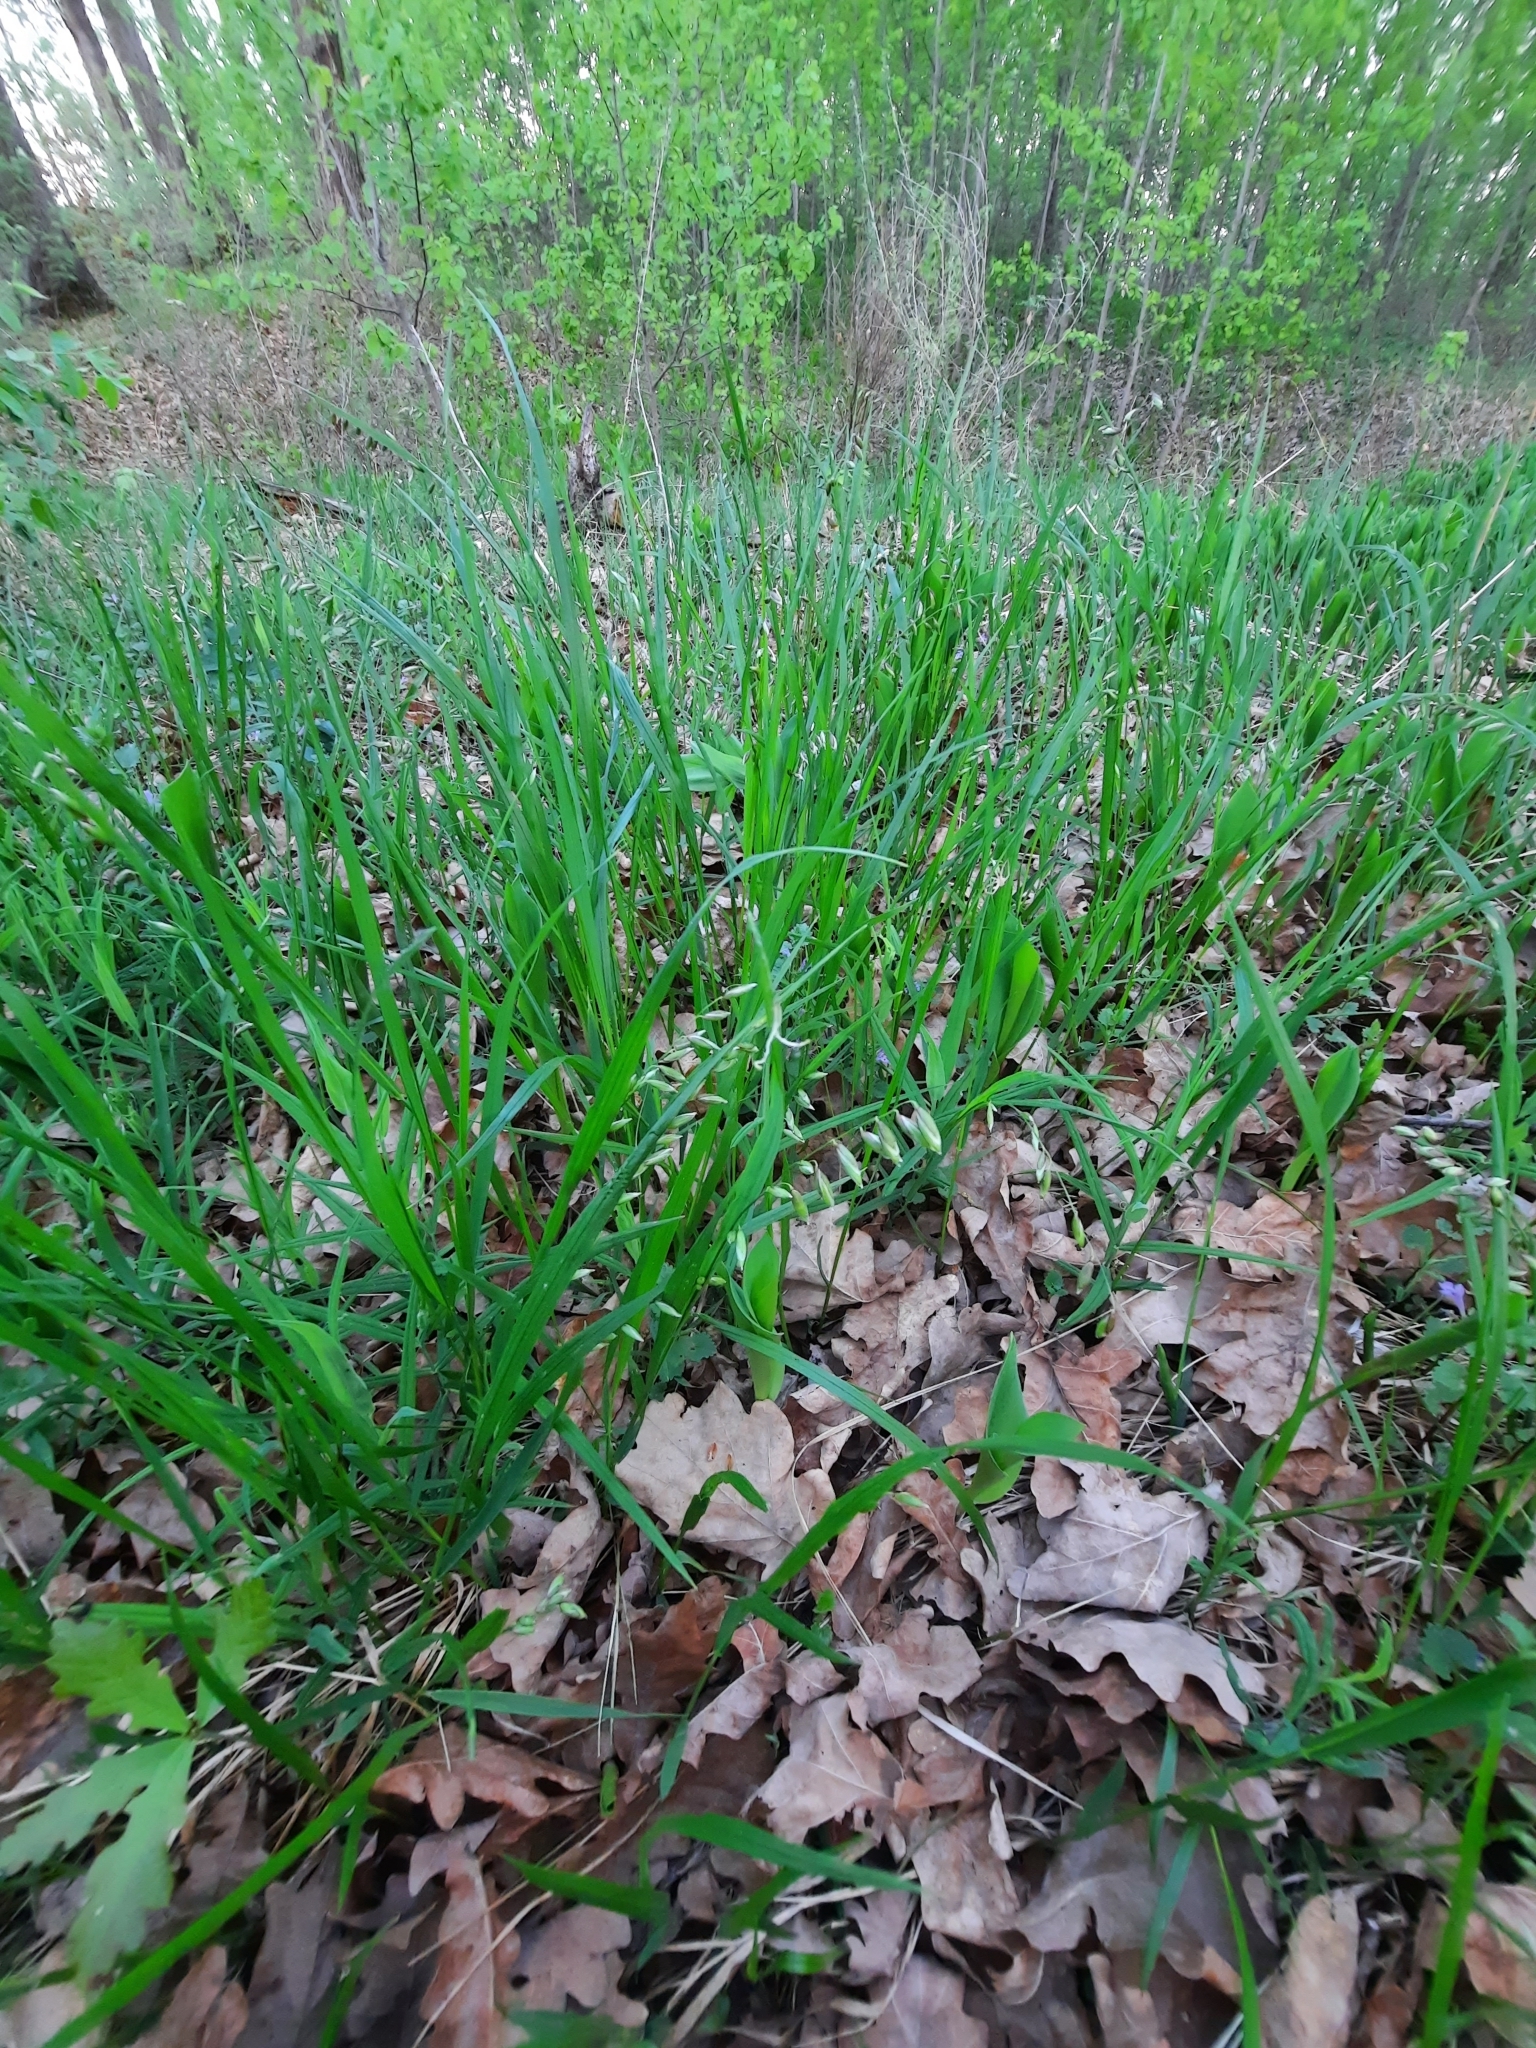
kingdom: Plantae
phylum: Tracheophyta
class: Liliopsida
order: Poales
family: Poaceae
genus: Melica
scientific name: Melica nutans
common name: Mountain melick
